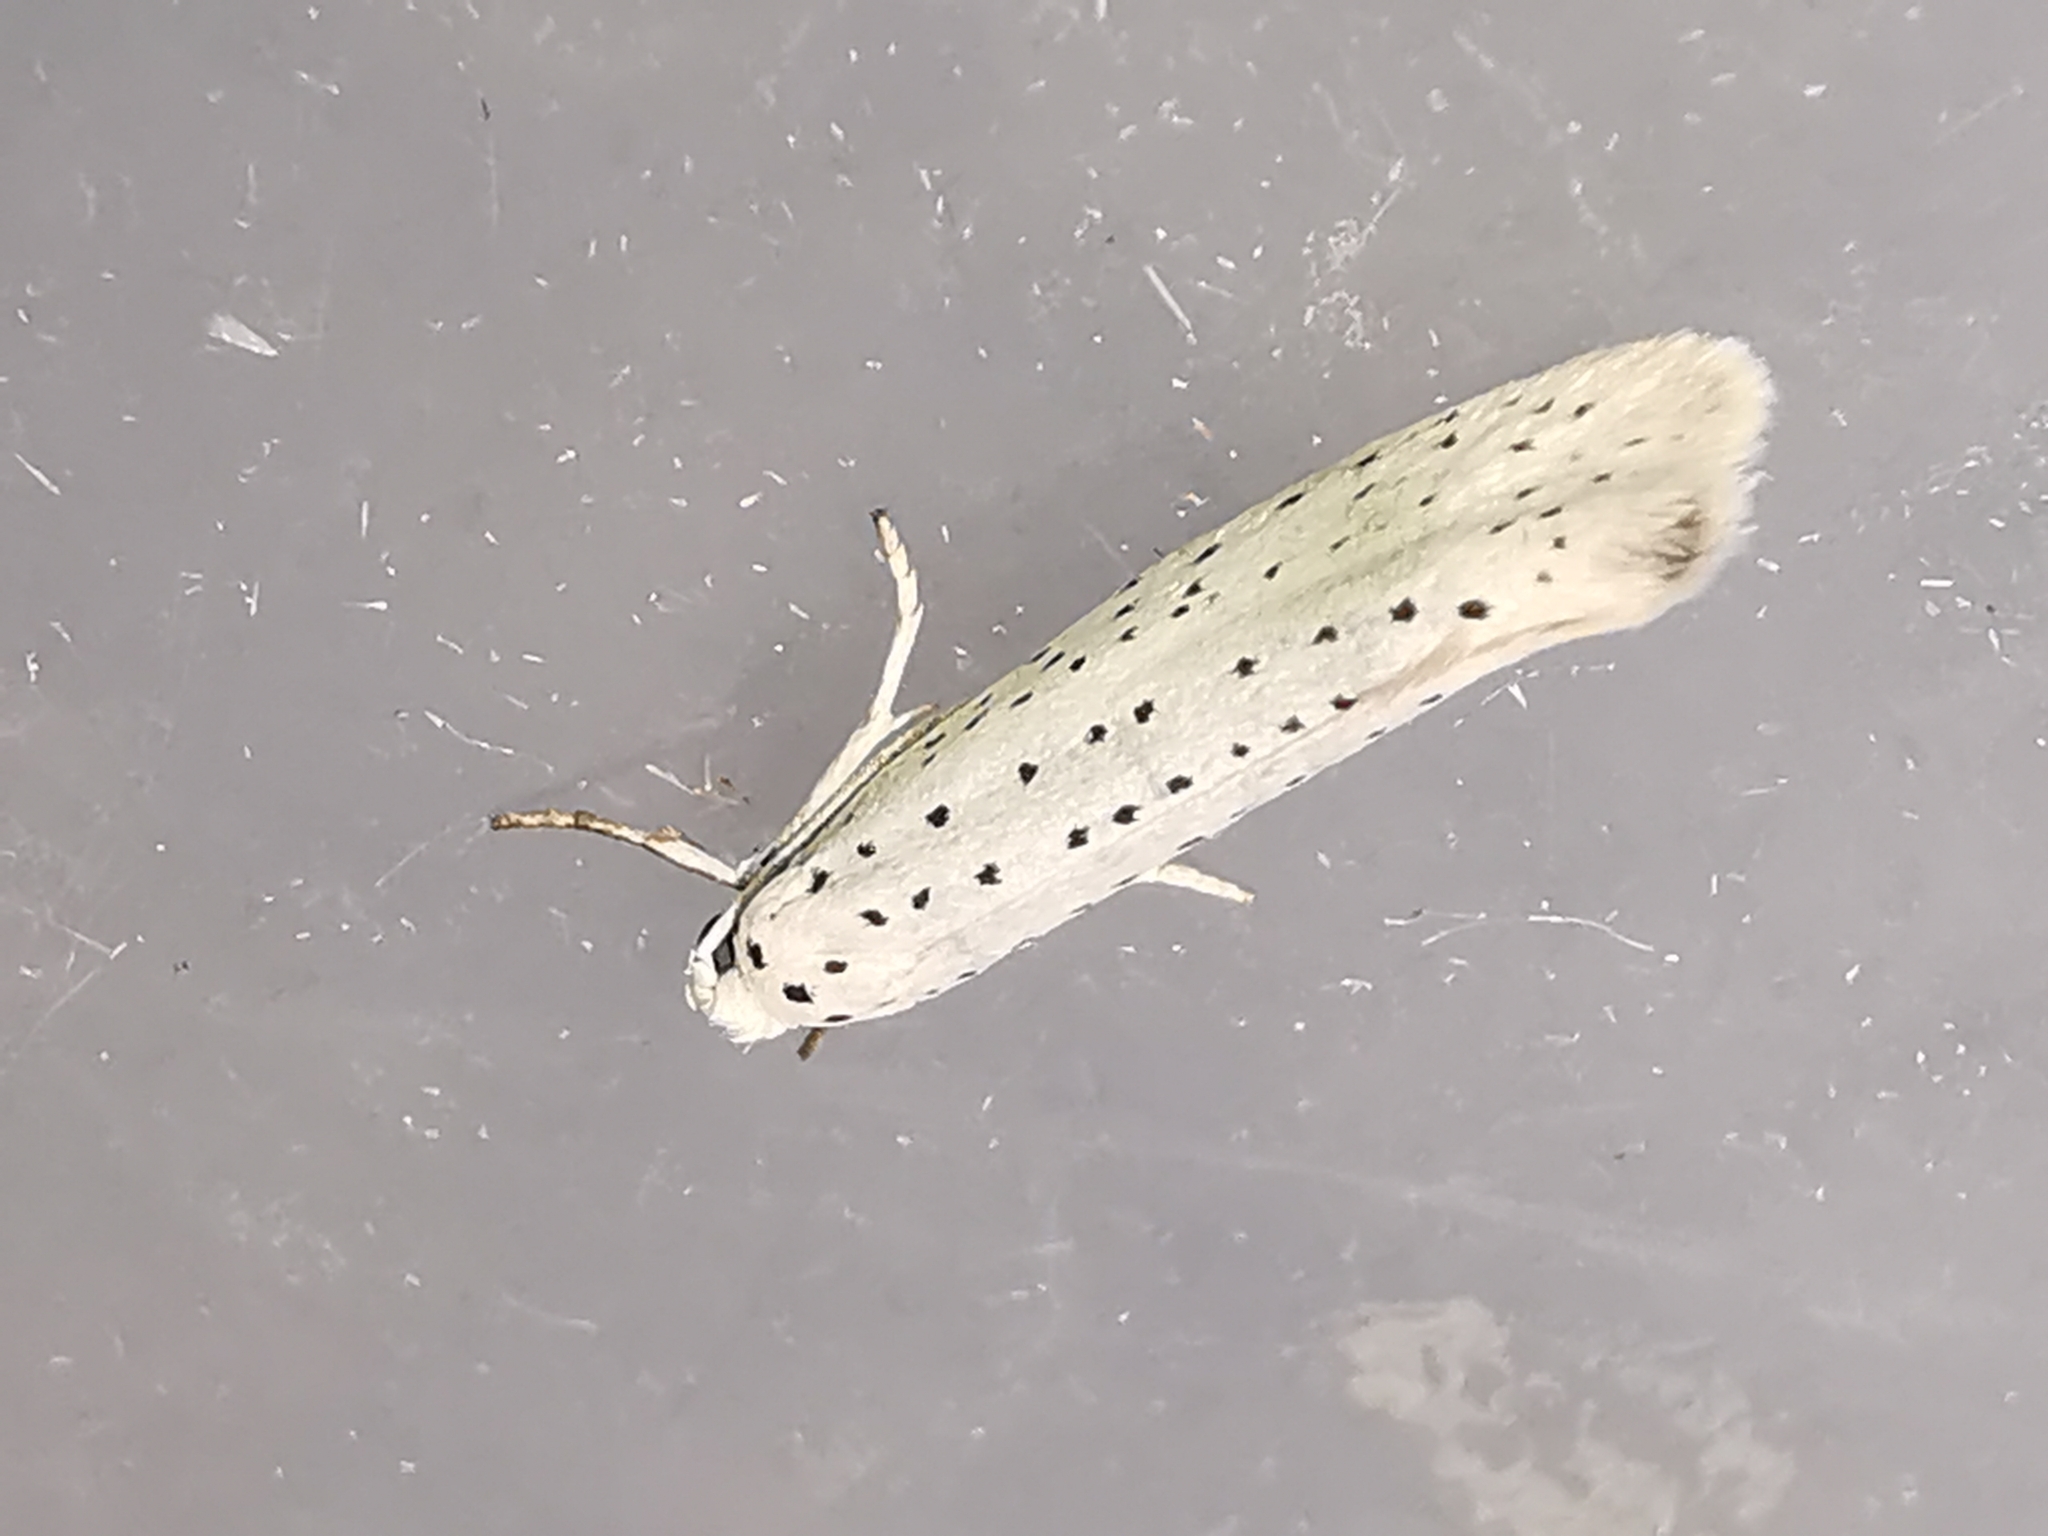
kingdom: Animalia
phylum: Arthropoda
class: Insecta
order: Lepidoptera
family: Yponomeutidae
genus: Yponomeuta
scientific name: Yponomeuta evonymella
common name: Bird-cherry ermine
